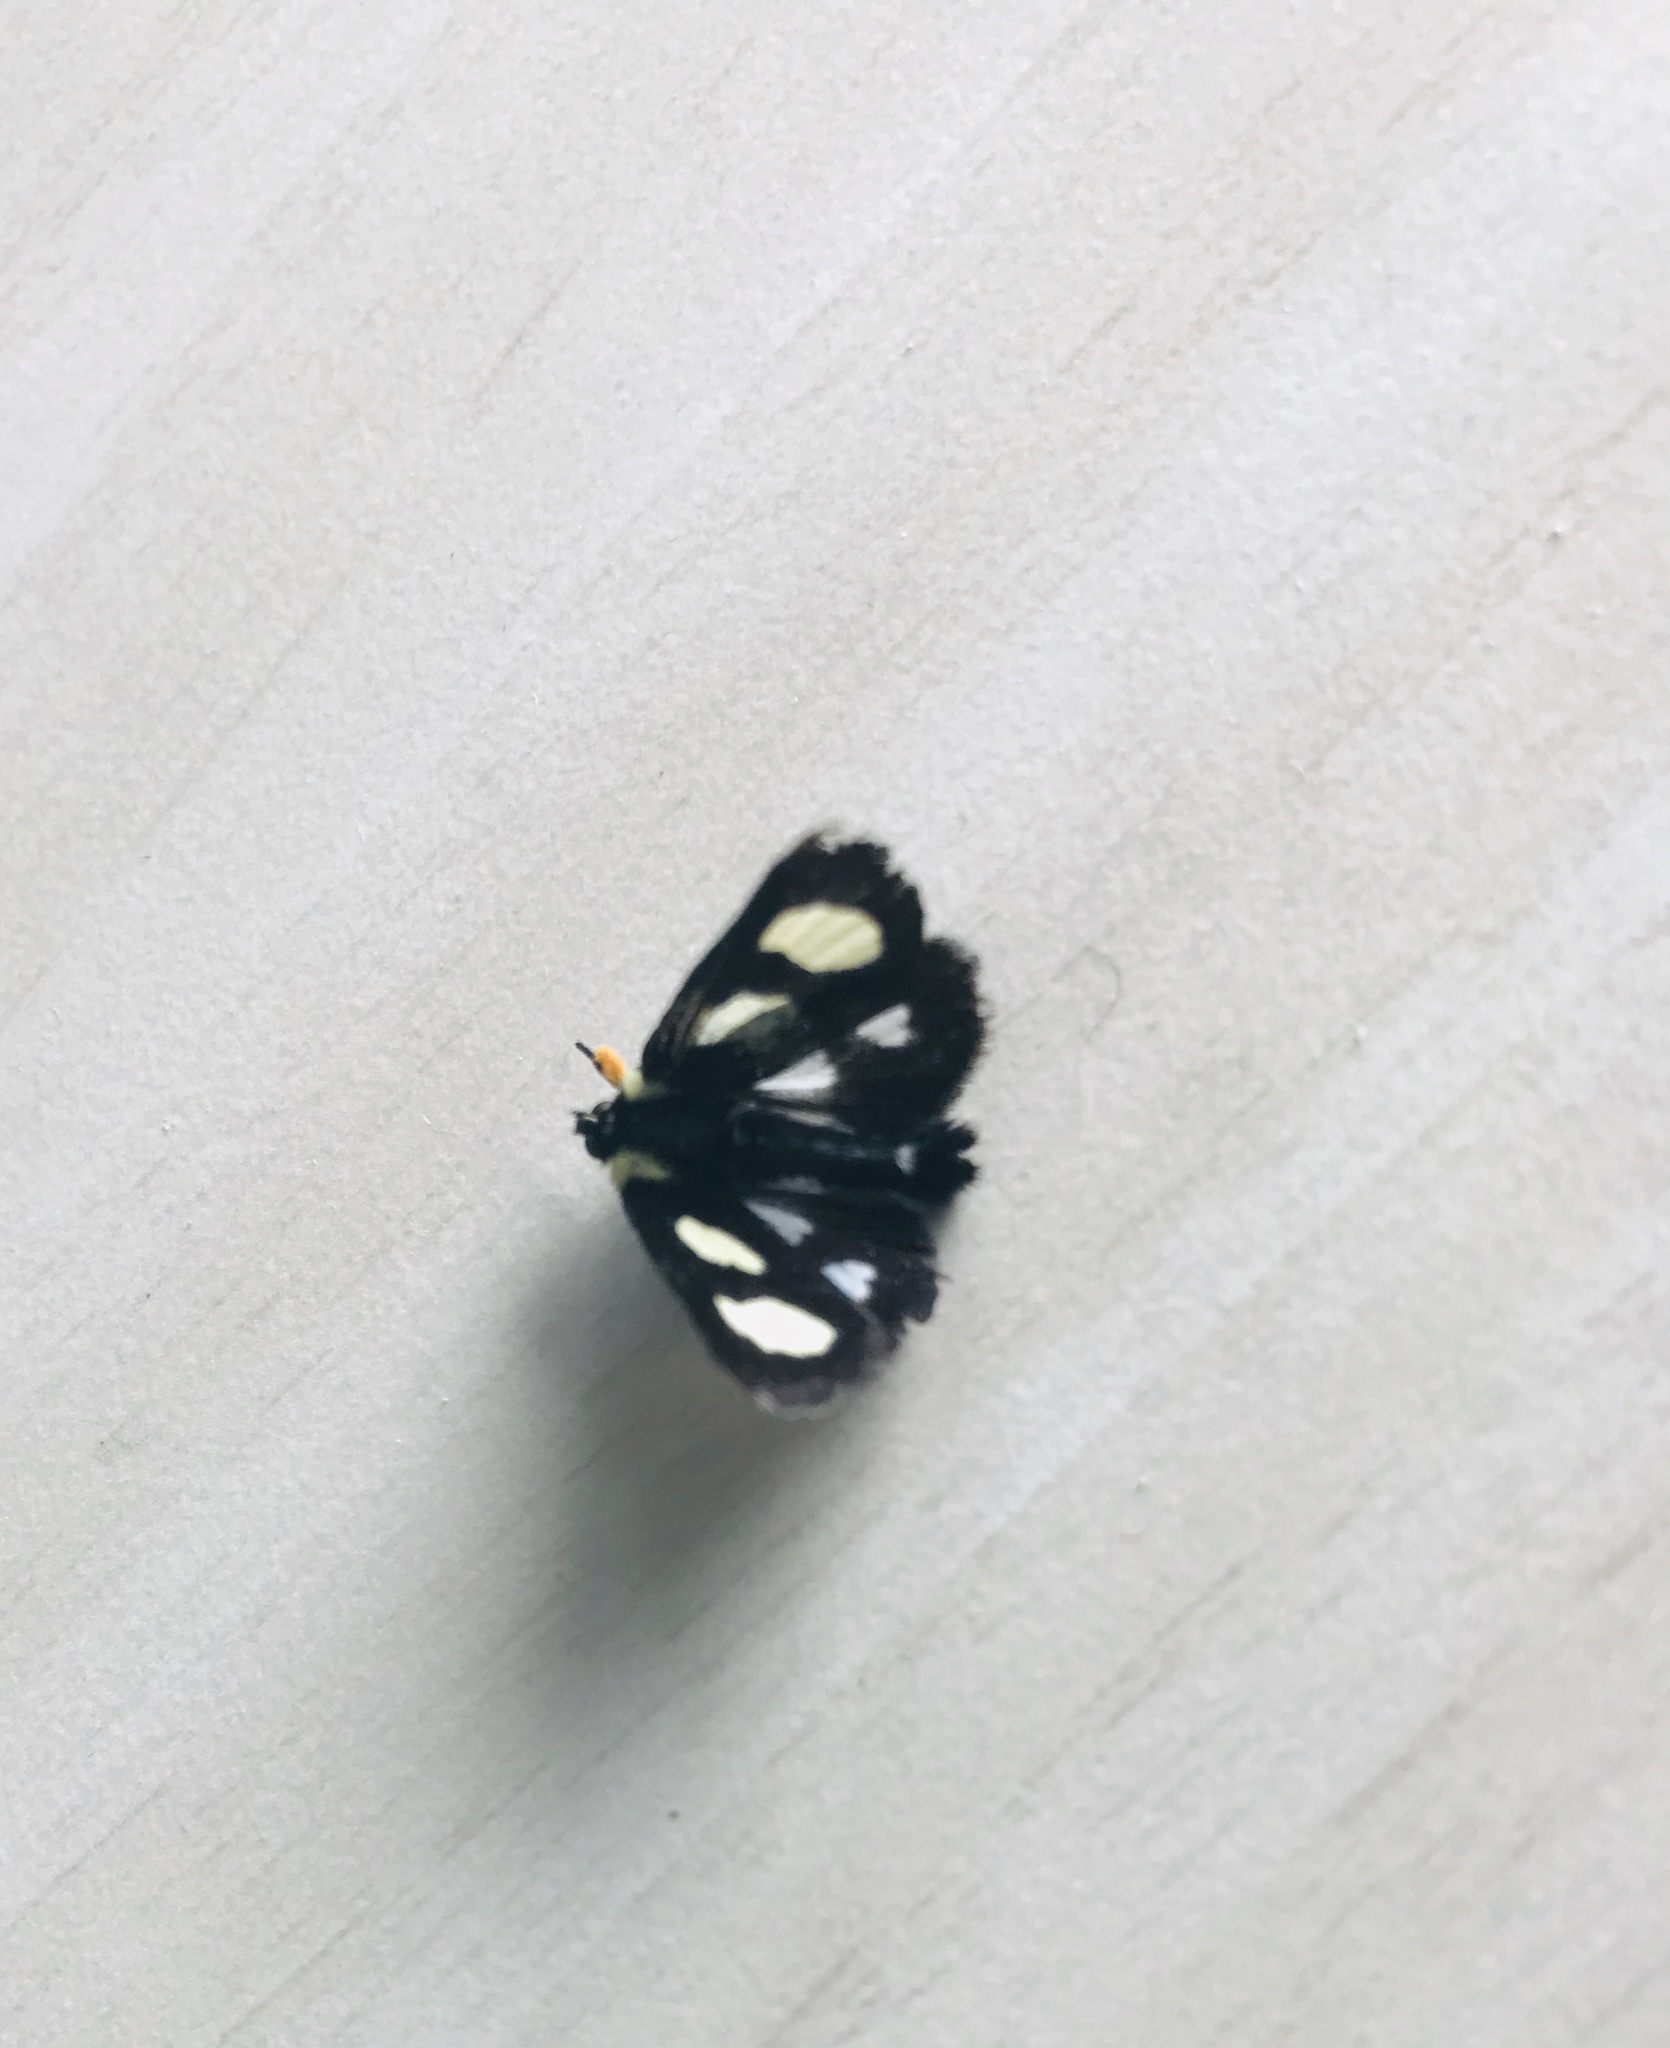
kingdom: Animalia
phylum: Arthropoda
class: Insecta
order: Lepidoptera
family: Noctuidae
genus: Alypia
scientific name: Alypia octomaculata
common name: Eight-spotted forester
